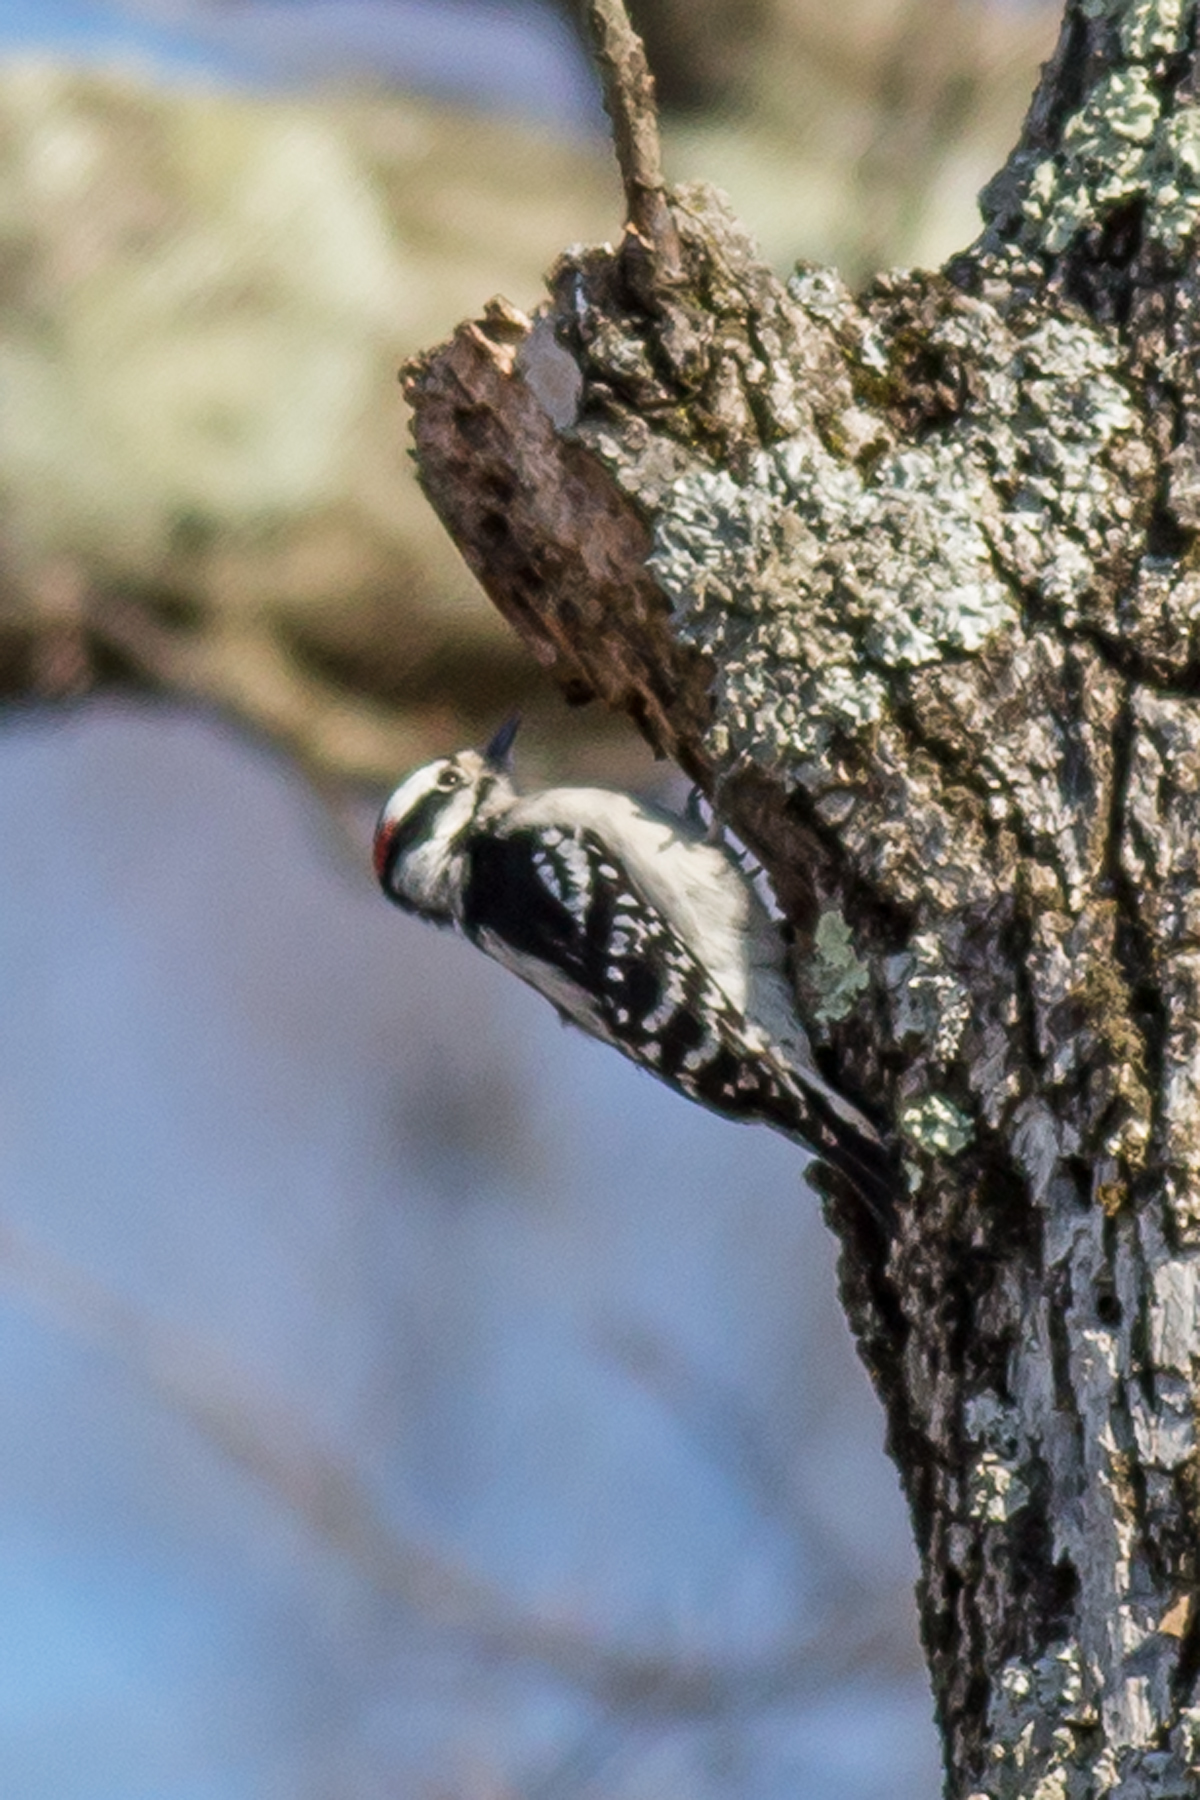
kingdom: Animalia
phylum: Chordata
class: Aves
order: Piciformes
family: Picidae
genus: Dryobates
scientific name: Dryobates pubescens
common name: Downy woodpecker
